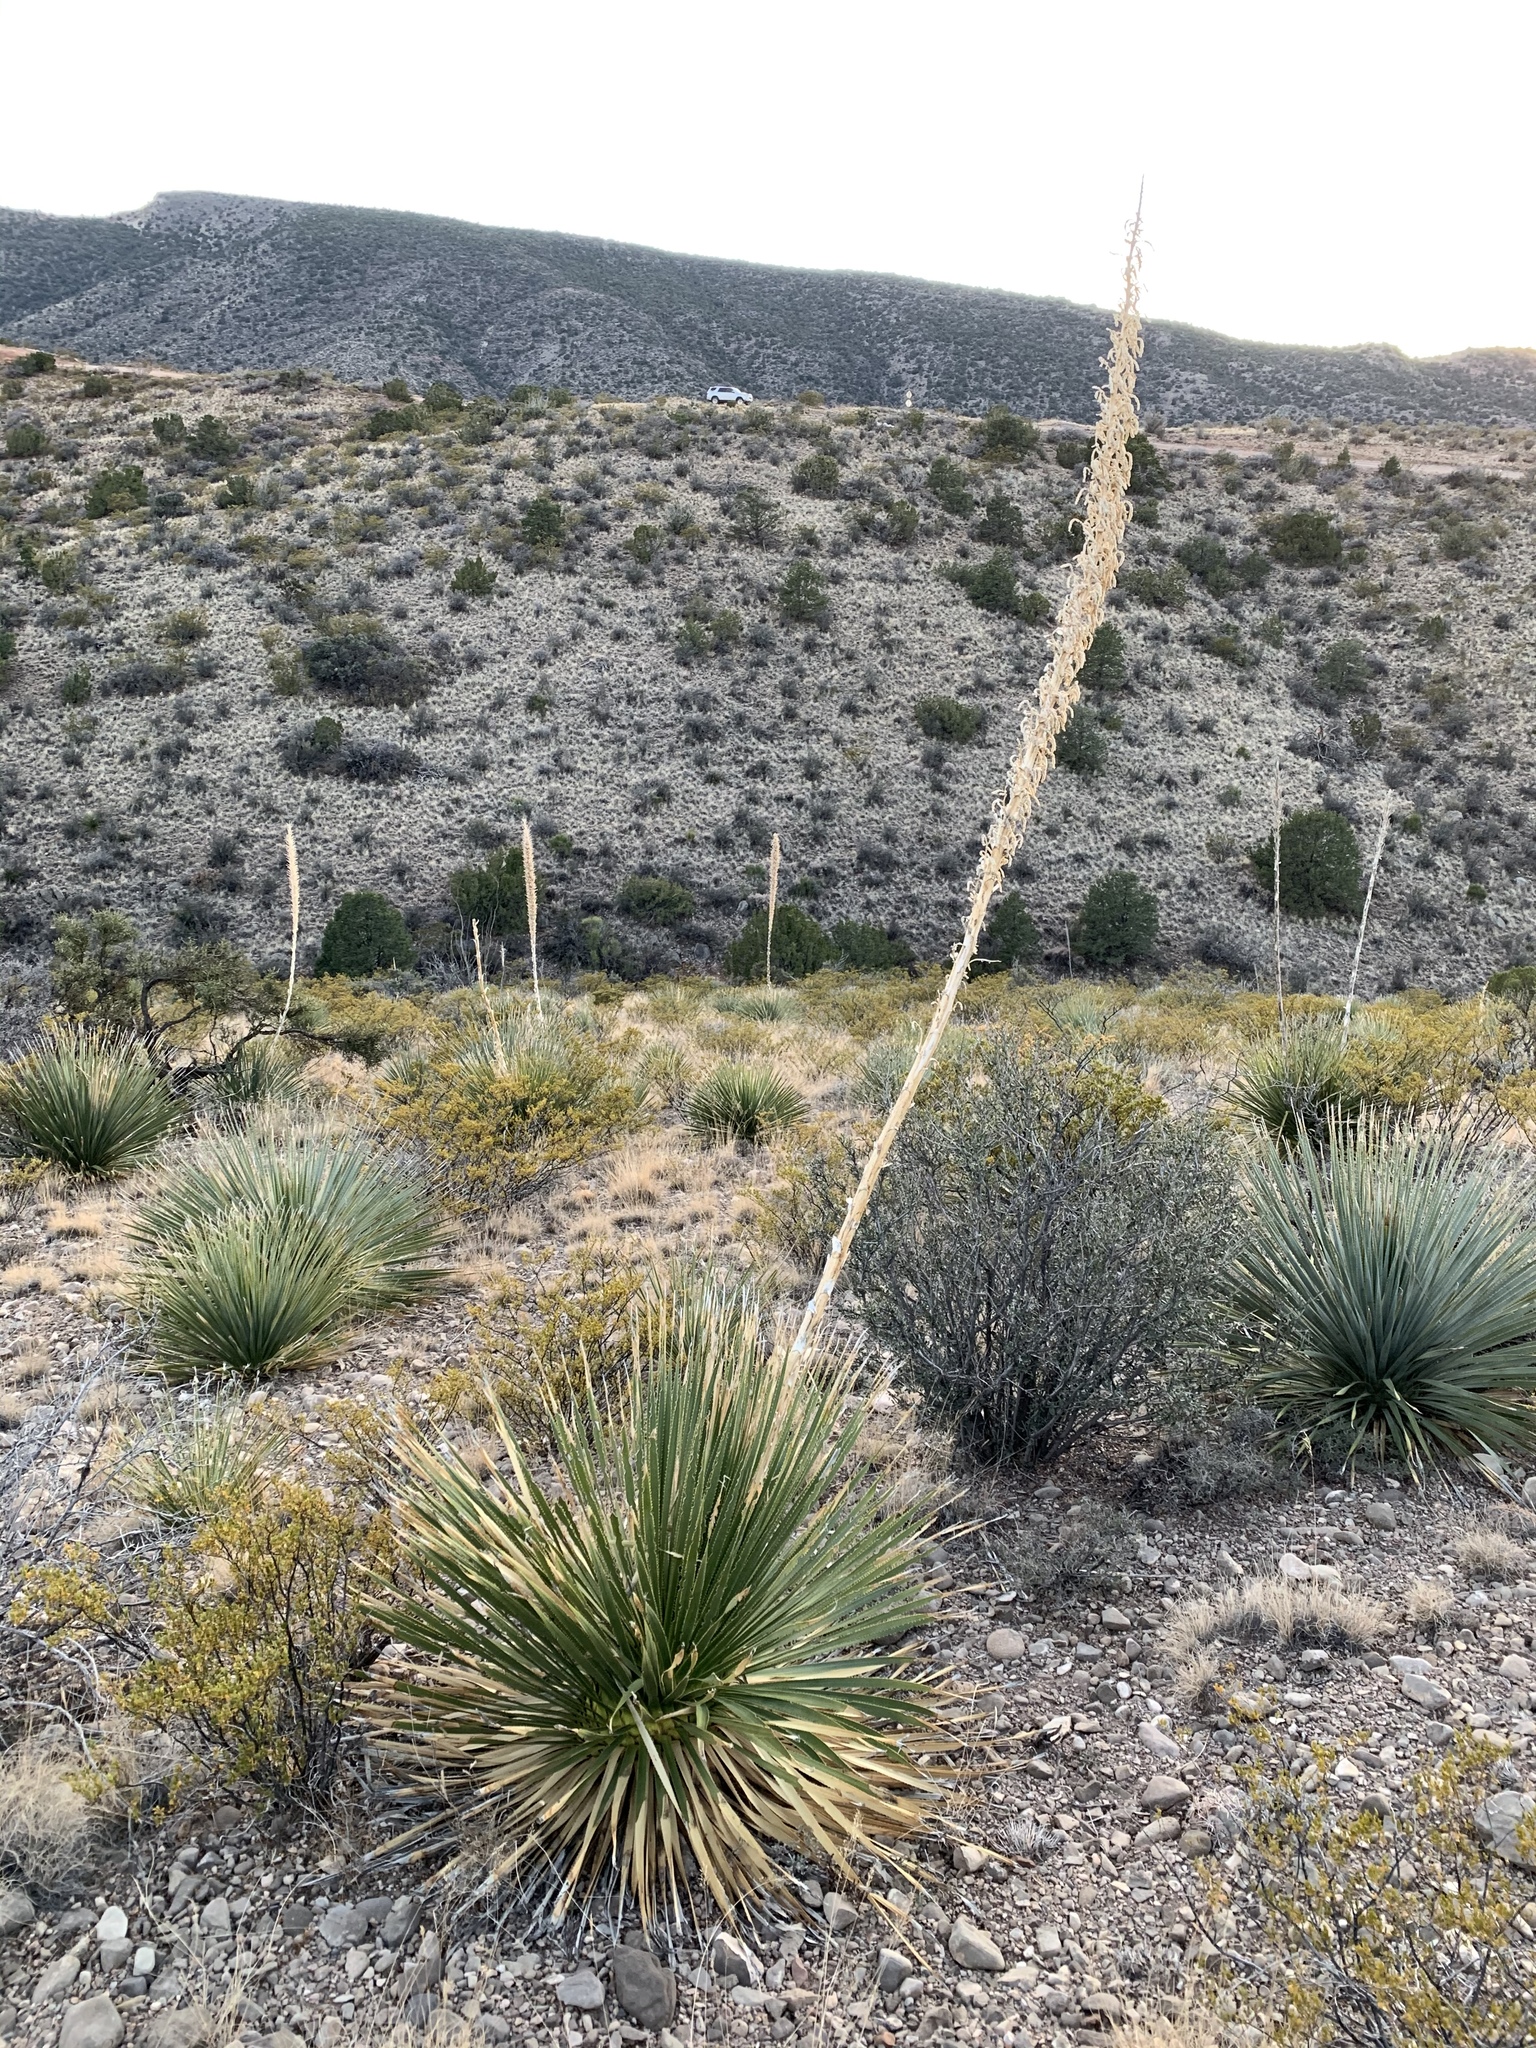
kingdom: Plantae
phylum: Tracheophyta
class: Liliopsida
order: Asparagales
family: Asparagaceae
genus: Dasylirion
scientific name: Dasylirion wheeleri
